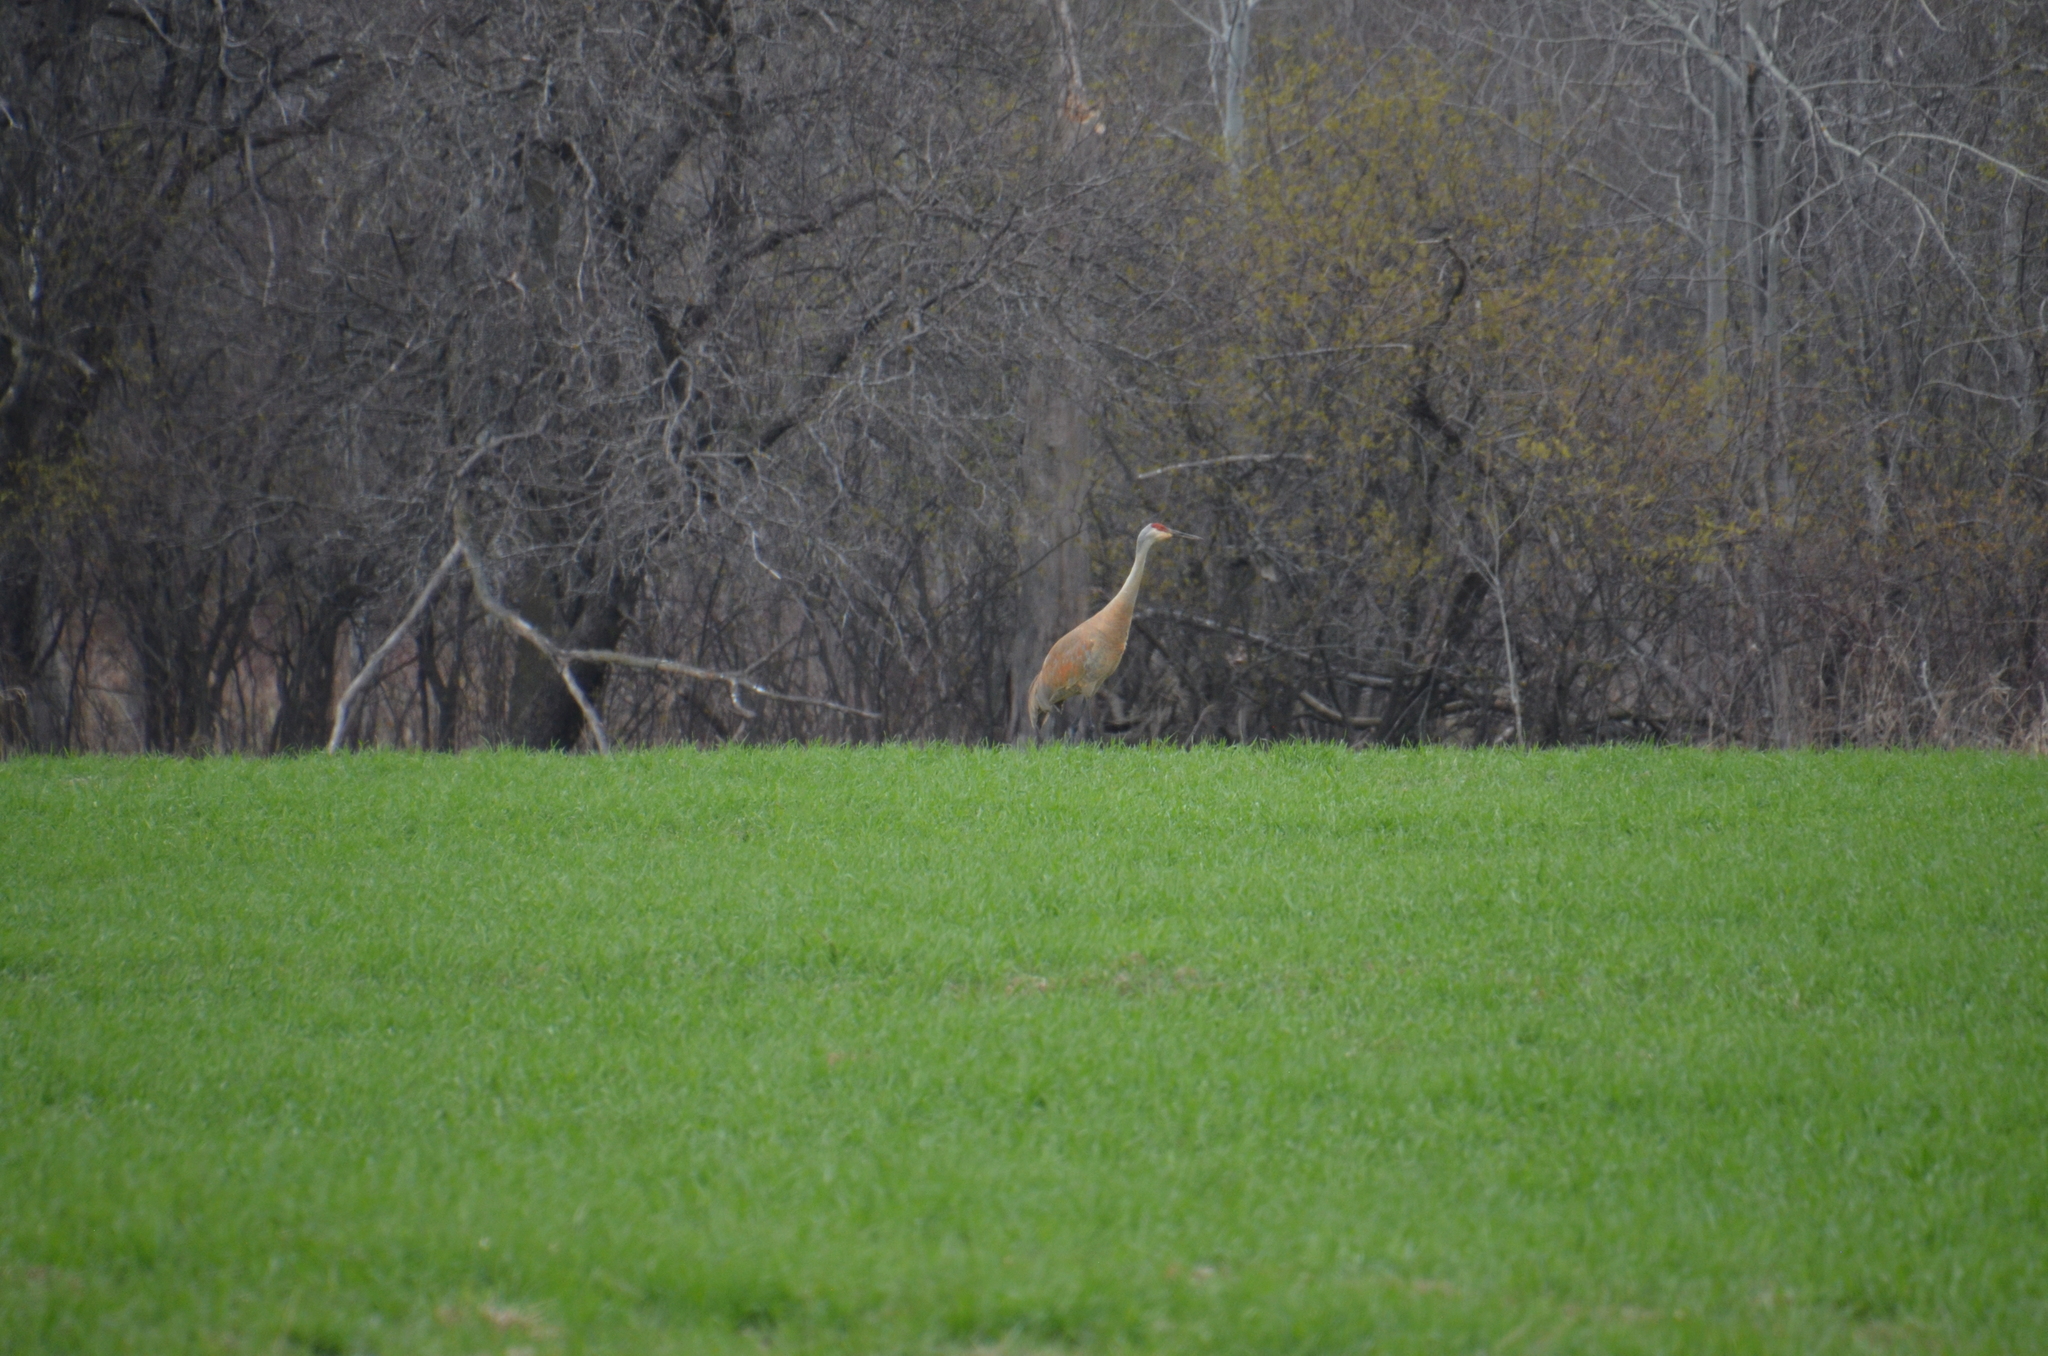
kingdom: Animalia
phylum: Chordata
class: Aves
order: Gruiformes
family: Gruidae
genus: Grus
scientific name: Grus canadensis
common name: Sandhill crane
